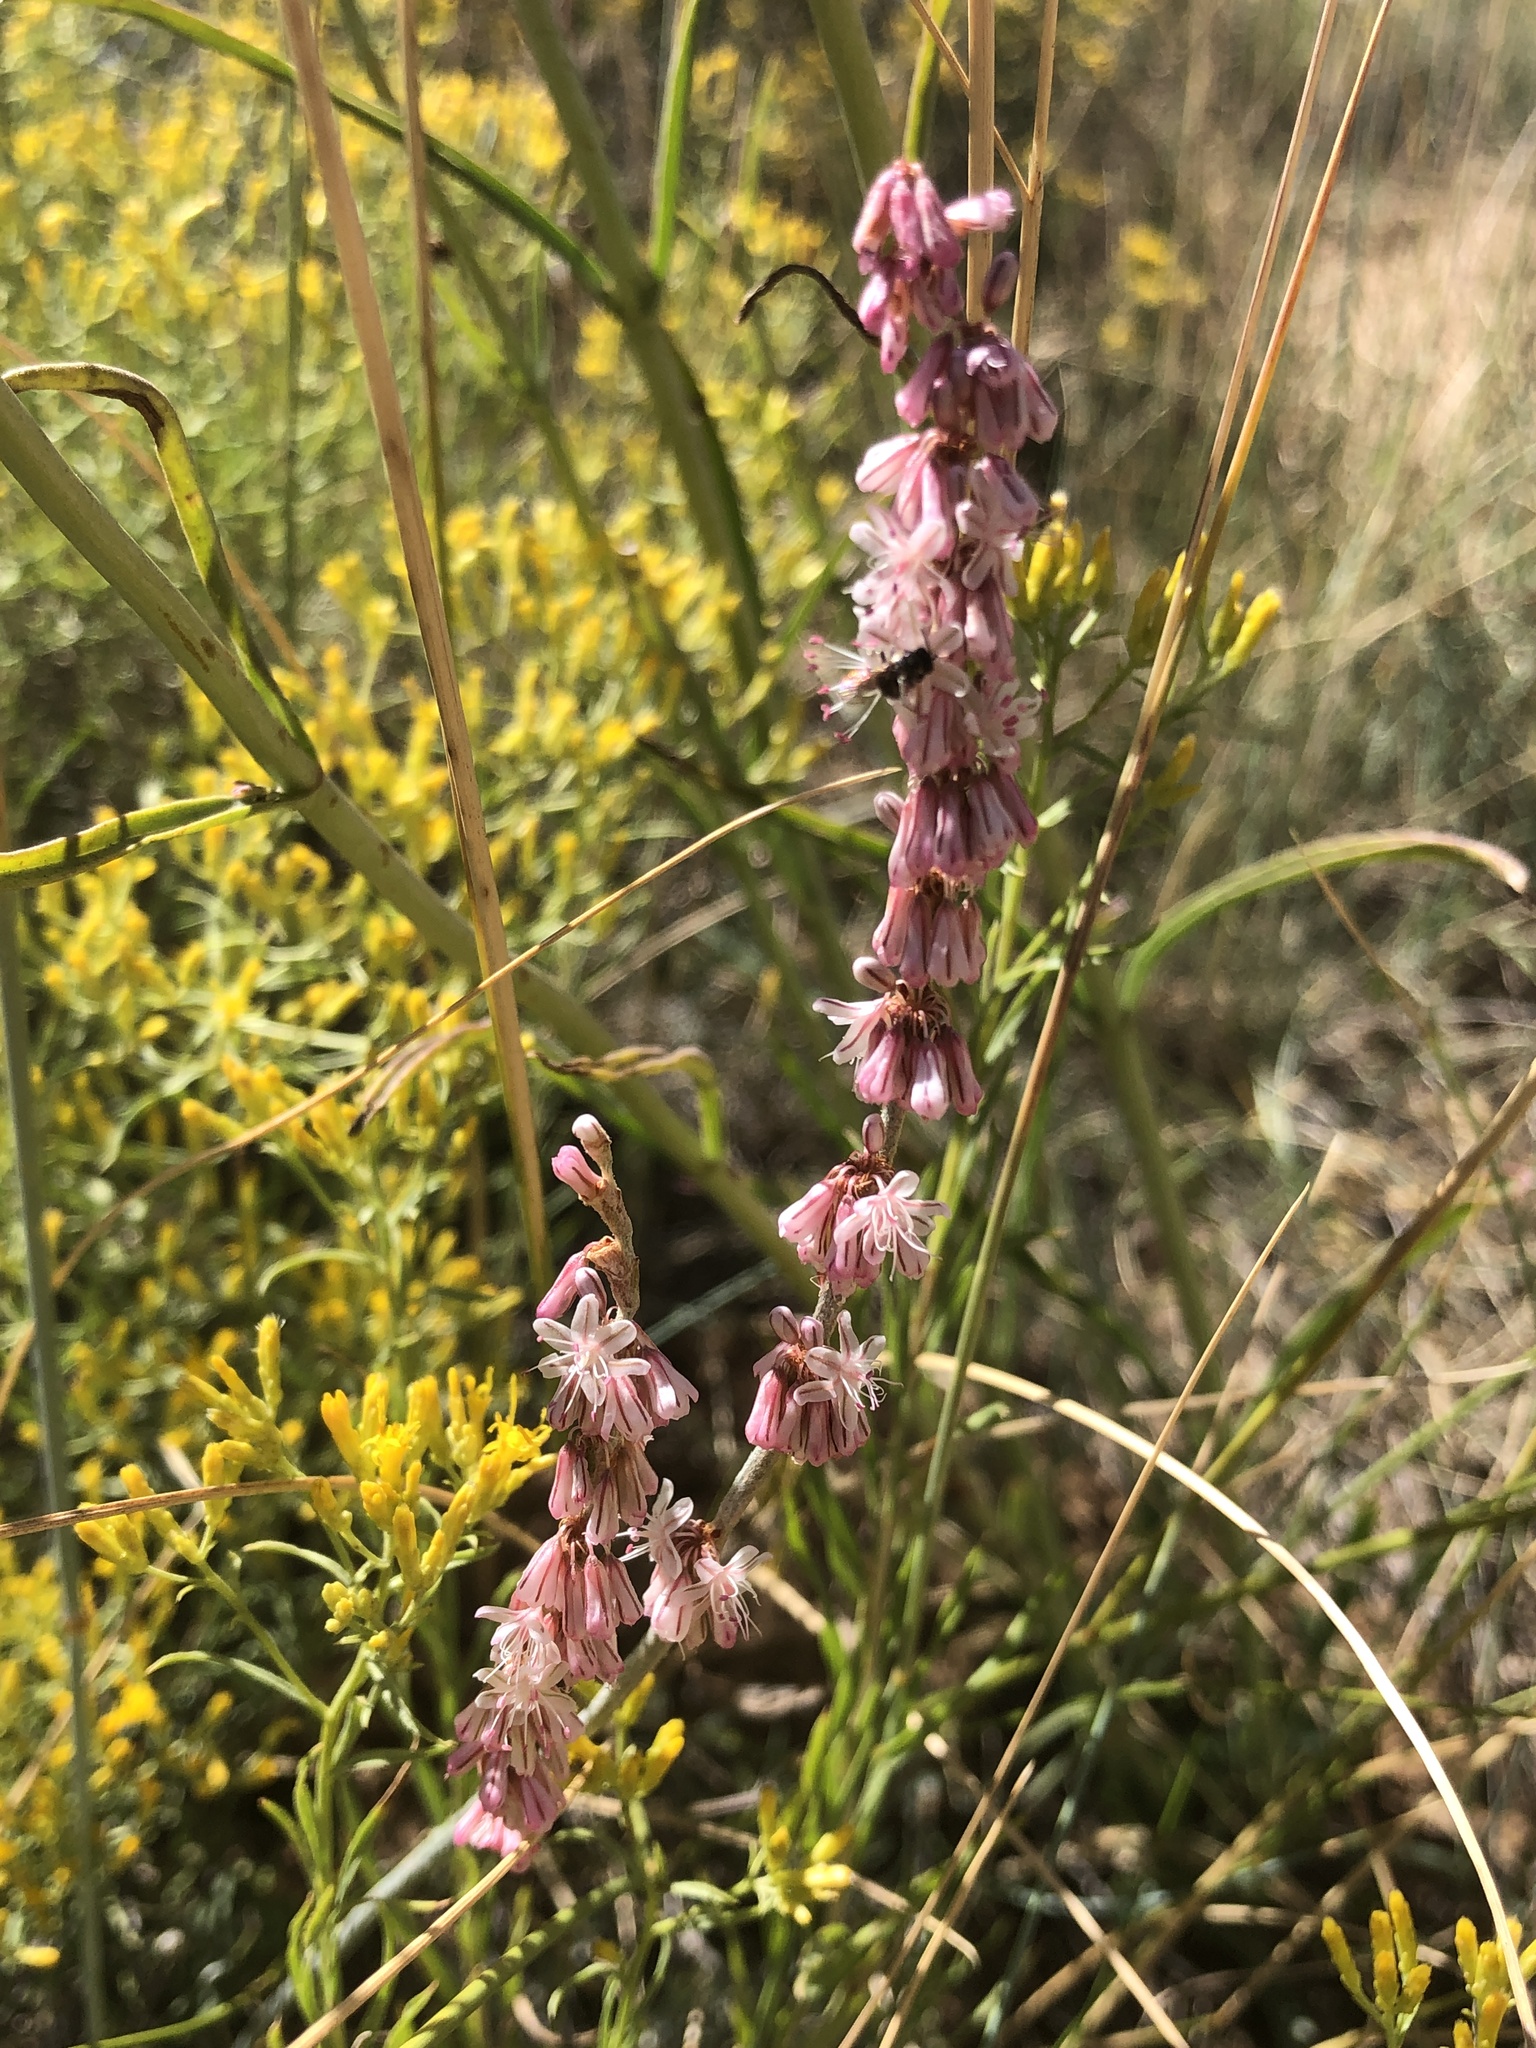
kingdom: Plantae
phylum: Tracheophyta
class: Magnoliopsida
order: Caryophyllales
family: Polygonaceae
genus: Eriogonum
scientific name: Eriogonum racemosum
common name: Redroot wild buckwheat
